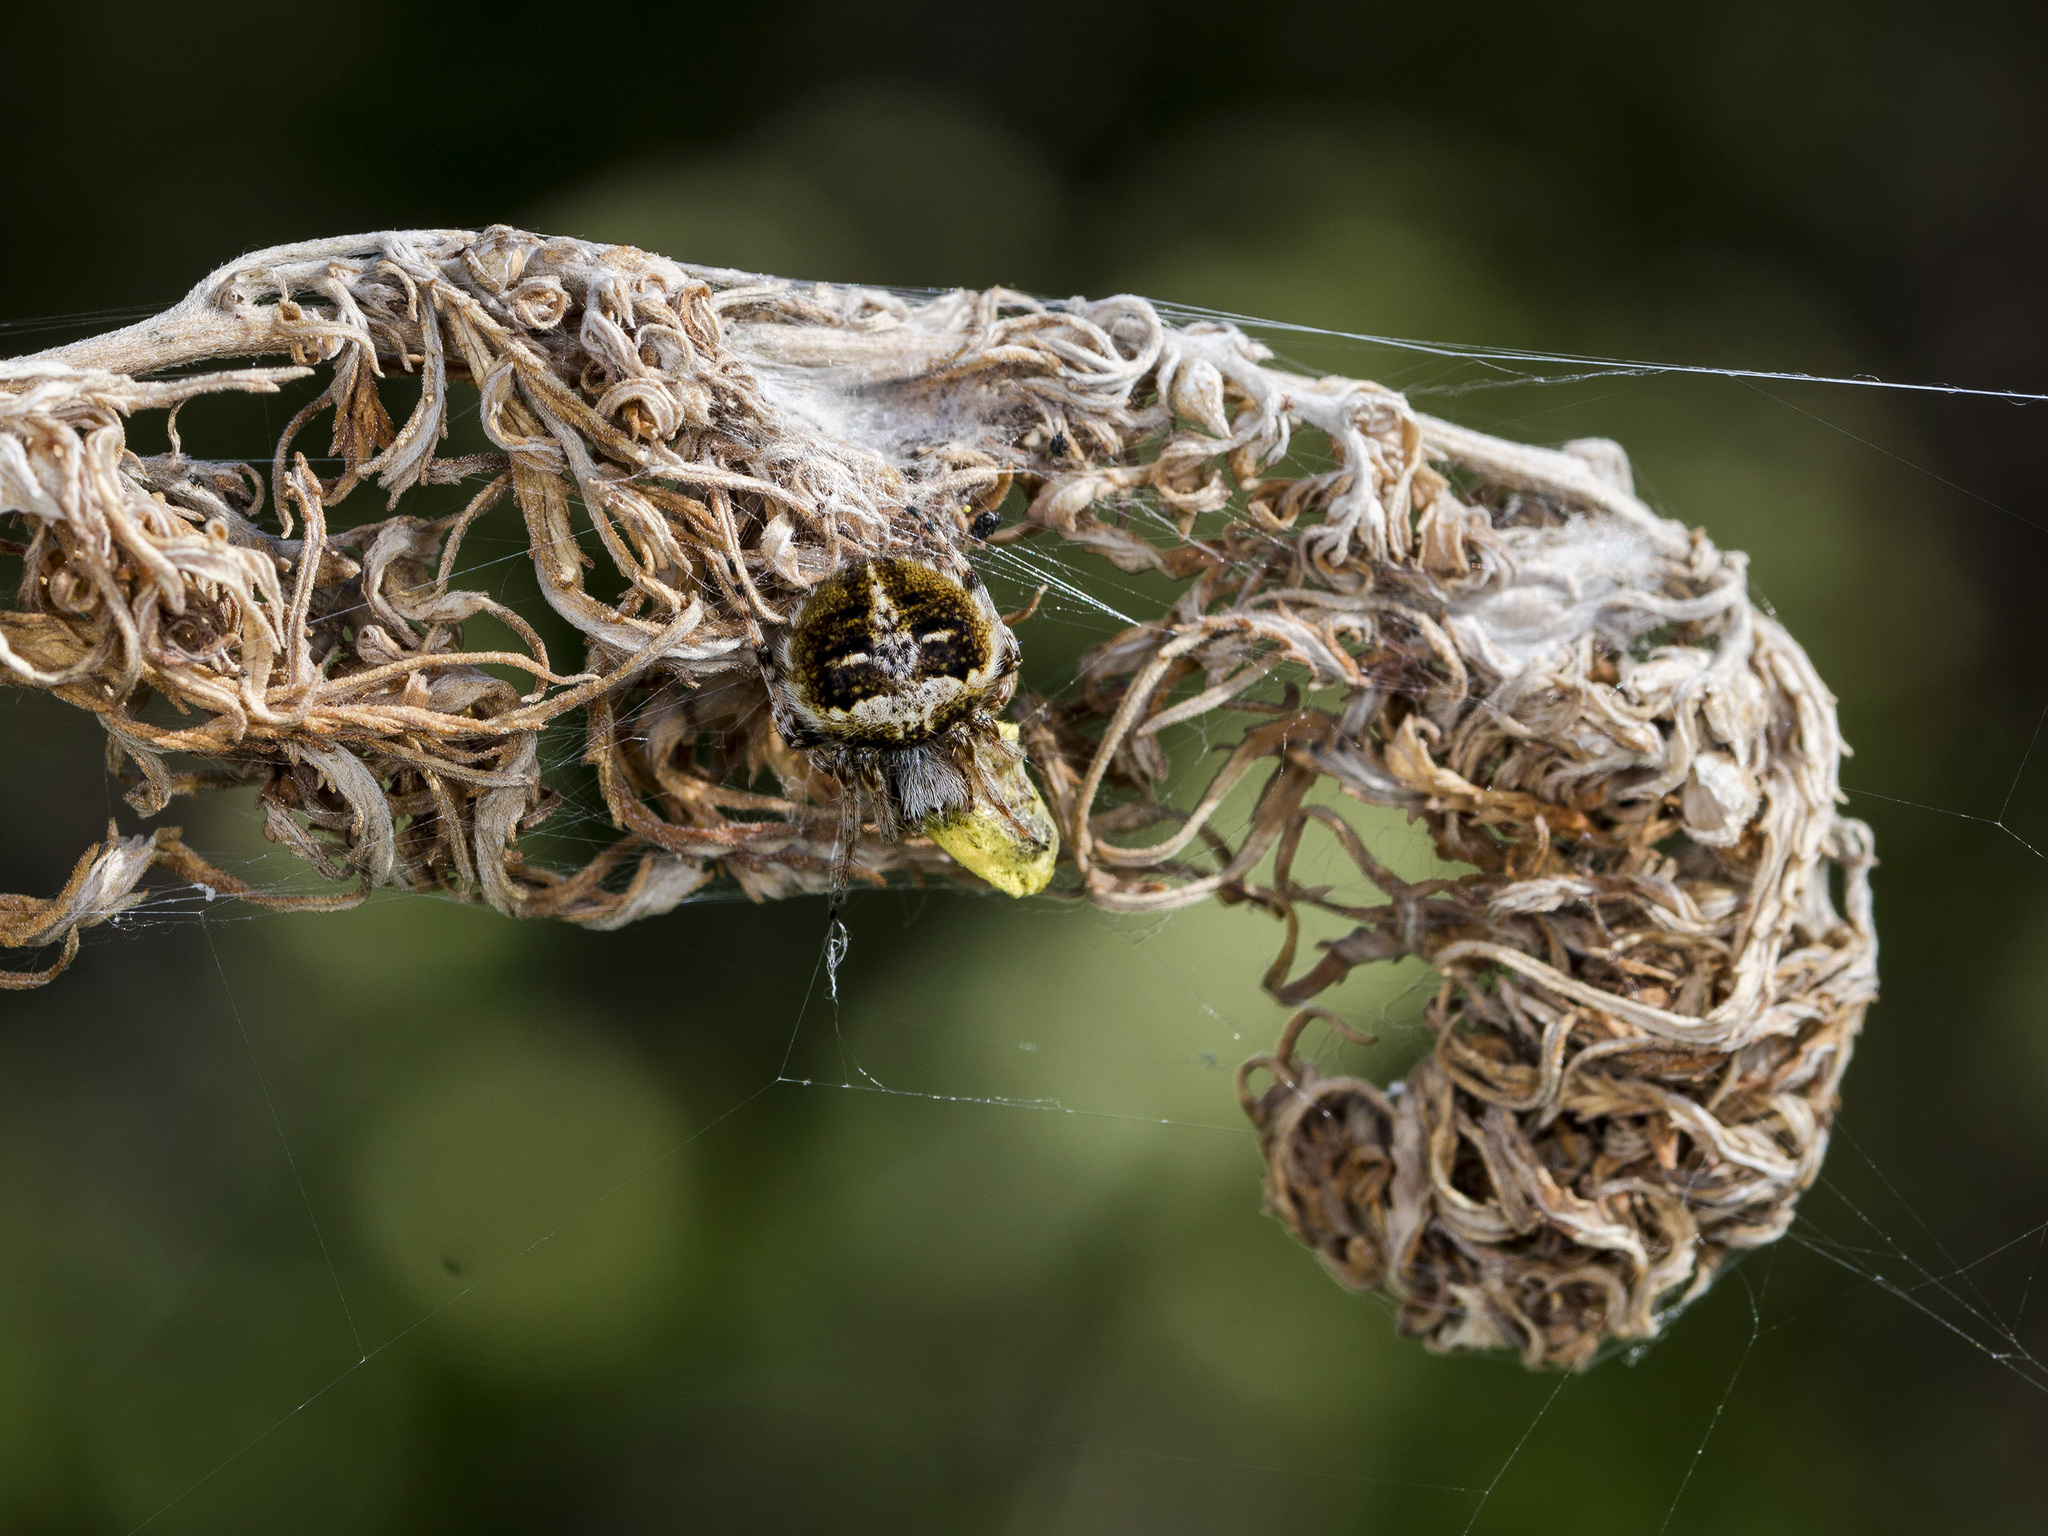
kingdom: Animalia
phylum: Arthropoda
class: Arachnida
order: Araneae
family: Araneidae
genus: Agalenatea
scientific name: Agalenatea redii
